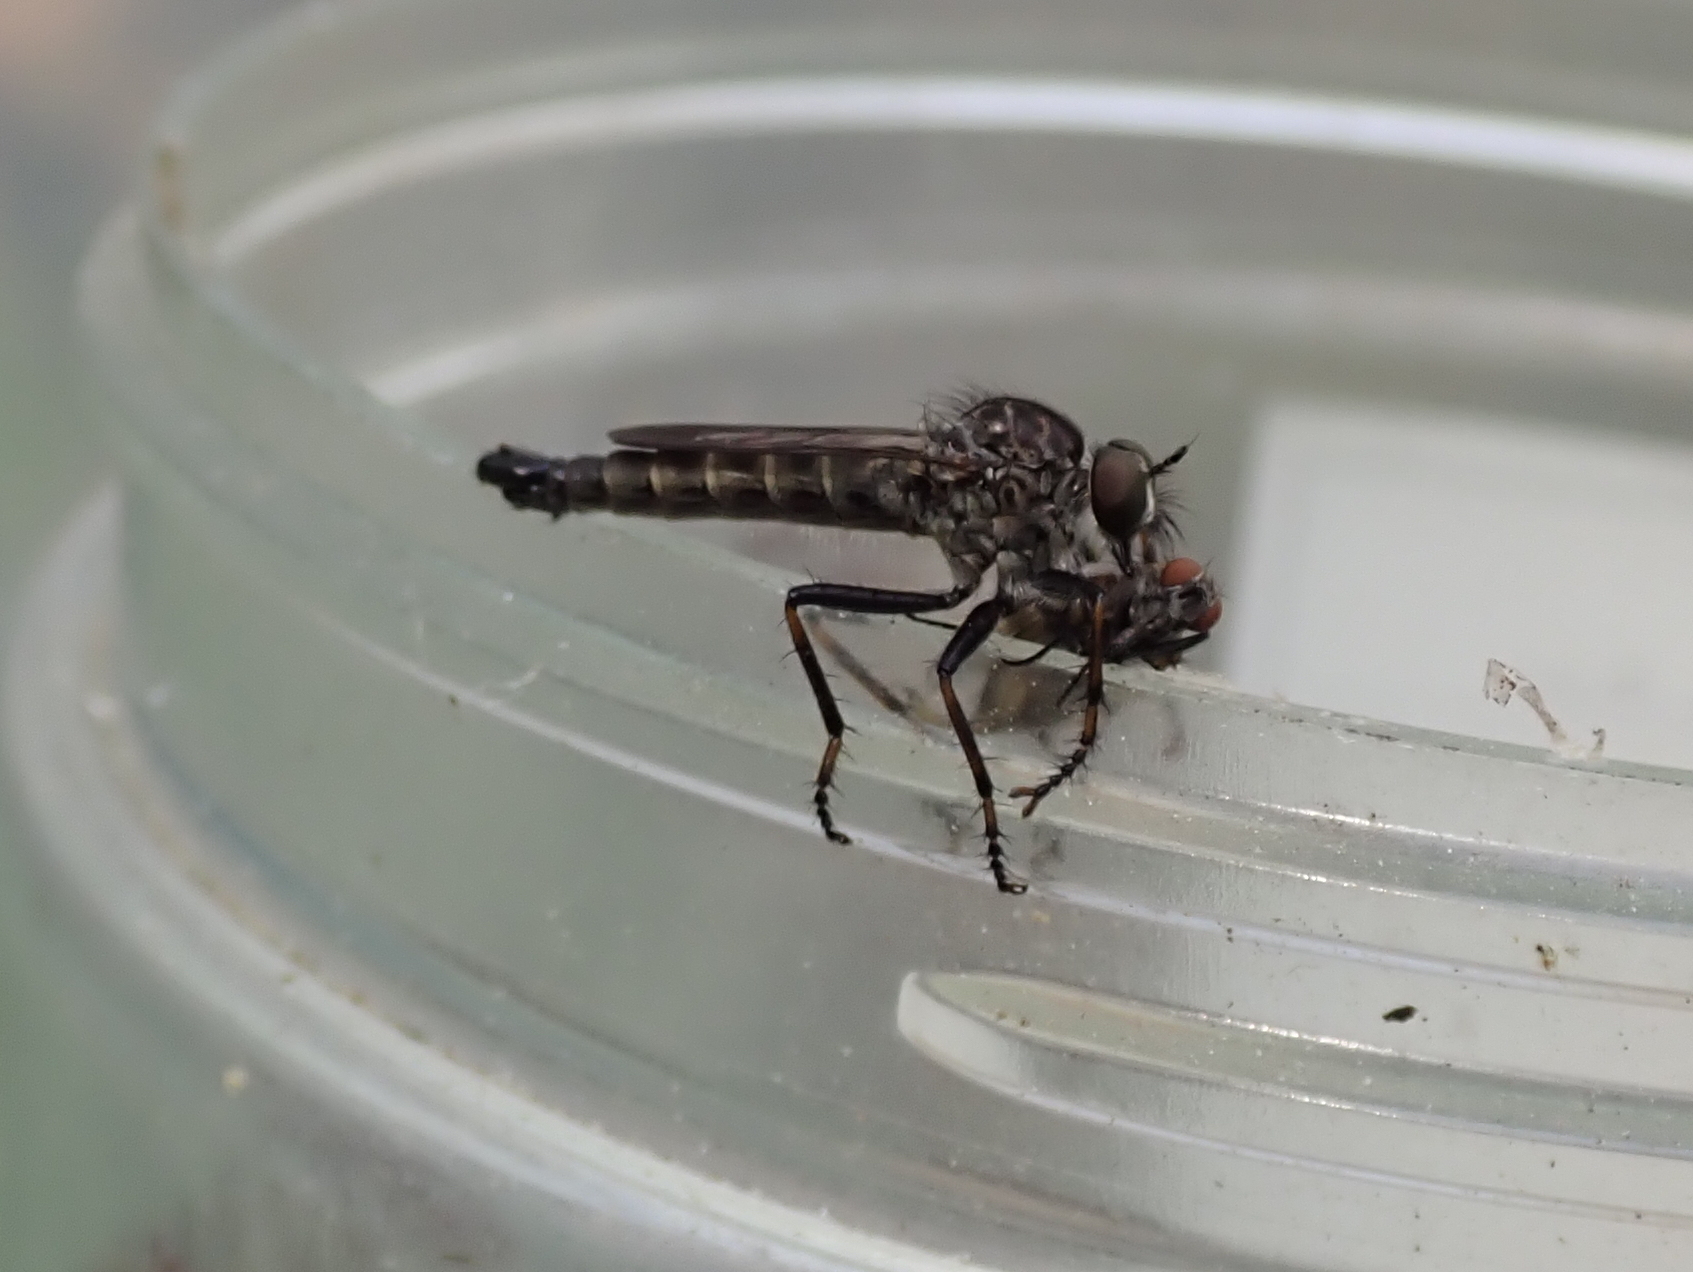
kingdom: Animalia
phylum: Arthropoda
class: Insecta
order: Diptera
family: Asilidae
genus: Machimus
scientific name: Machimus sadyates
